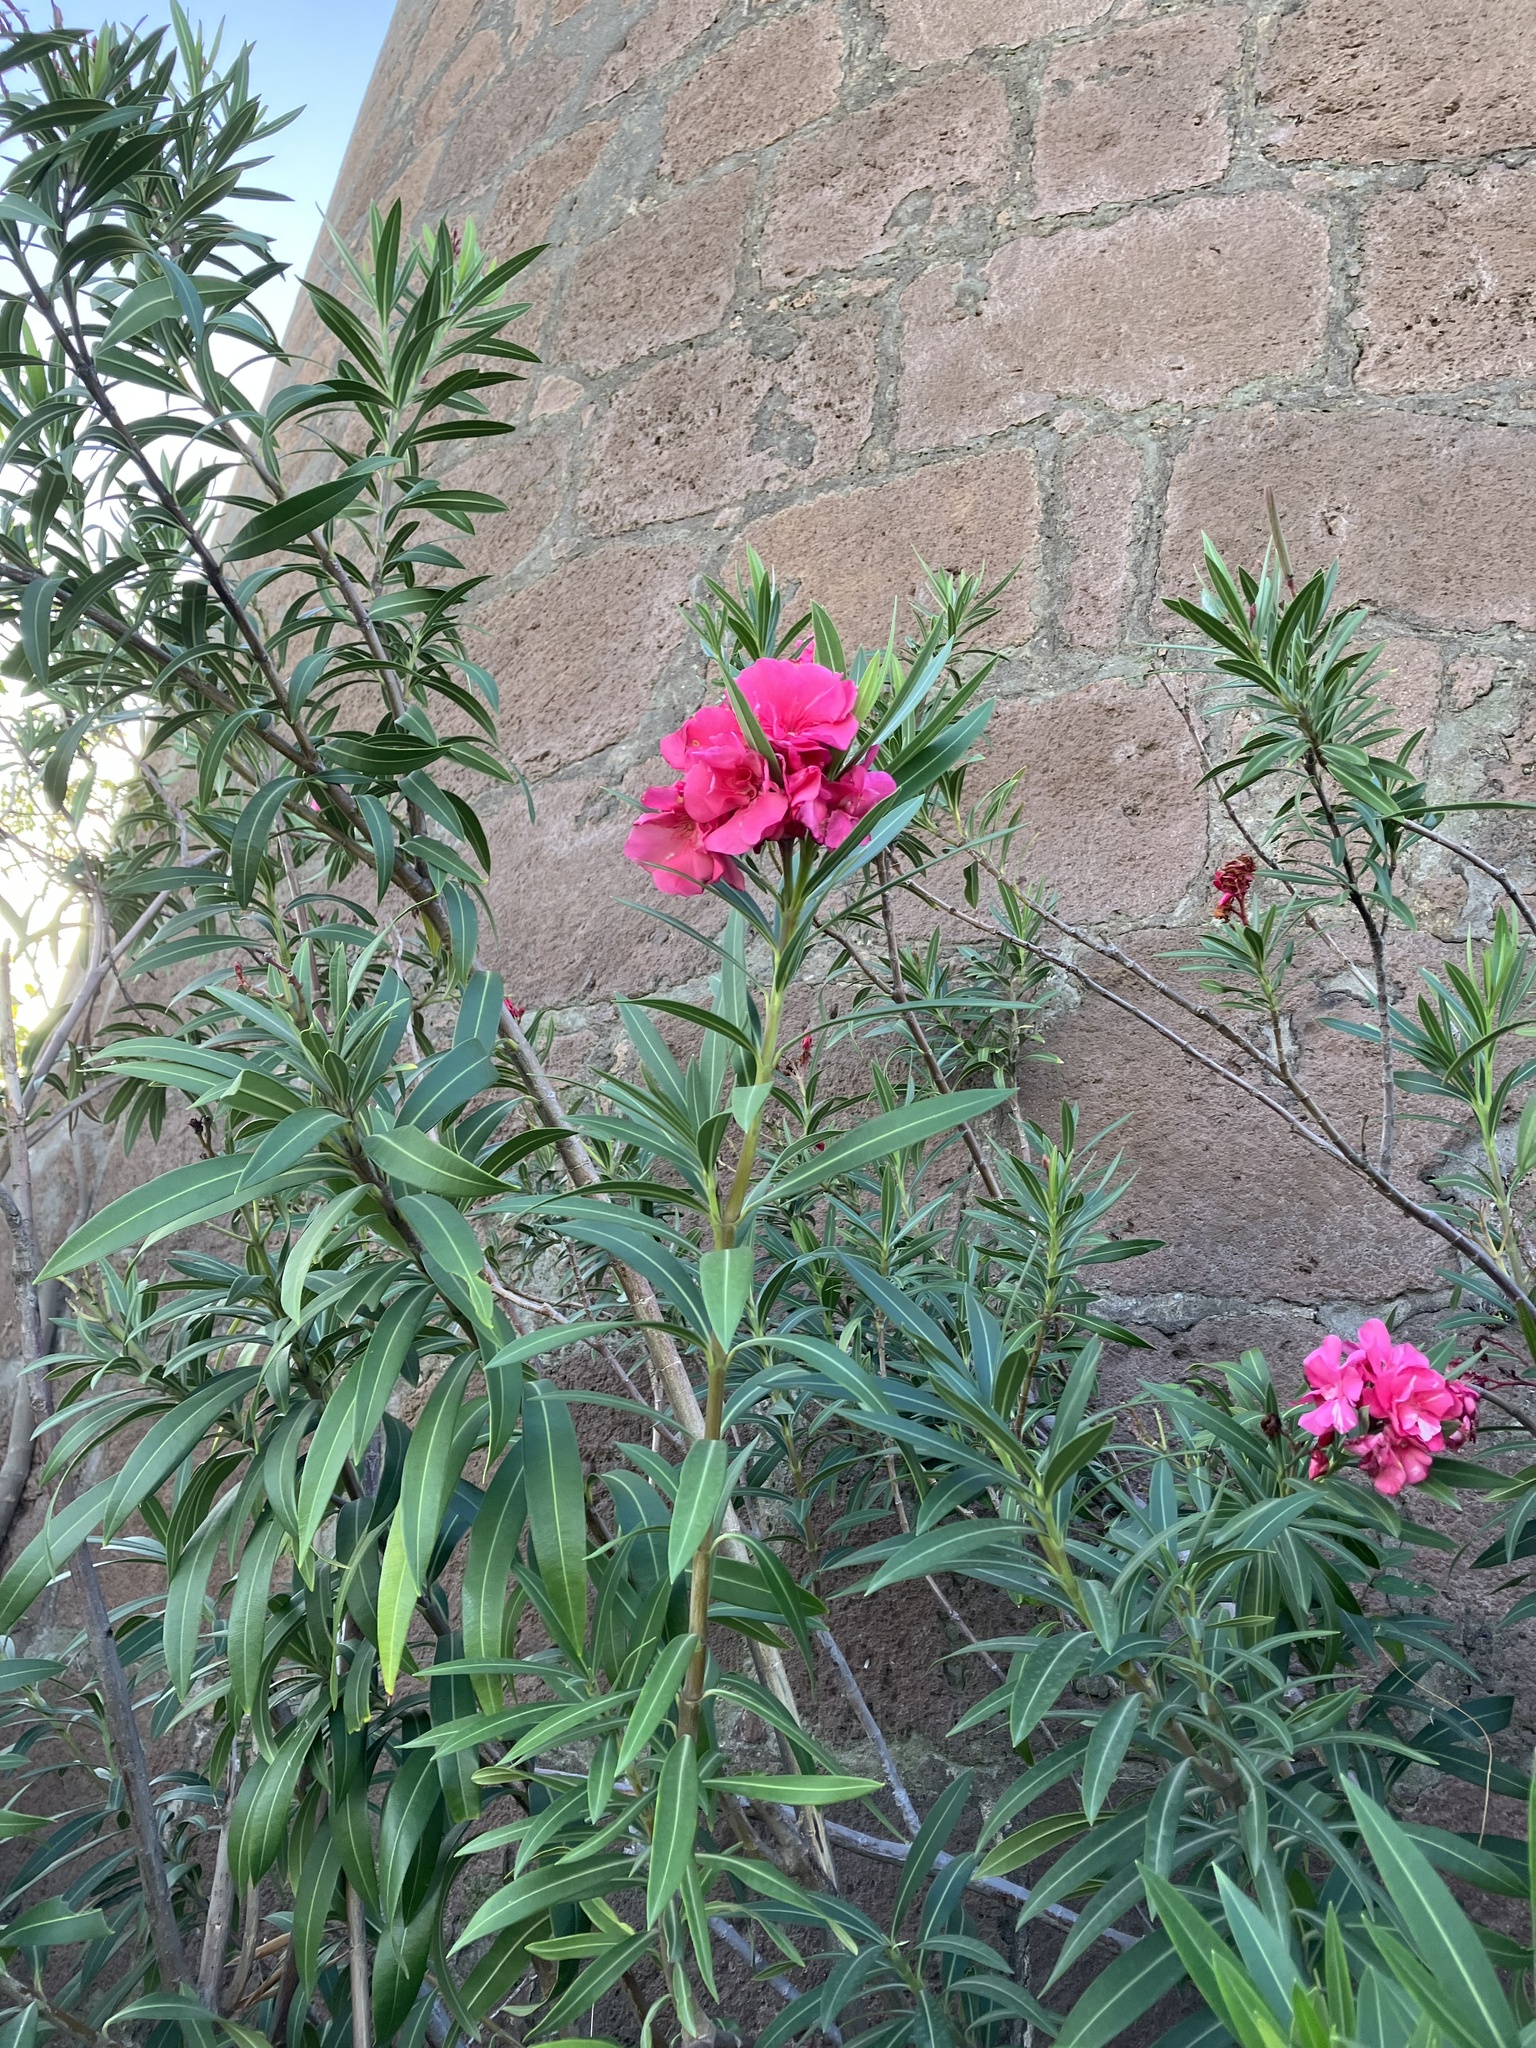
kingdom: Plantae
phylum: Tracheophyta
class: Magnoliopsida
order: Gentianales
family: Apocynaceae
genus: Nerium
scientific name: Nerium oleander
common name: Oleander
